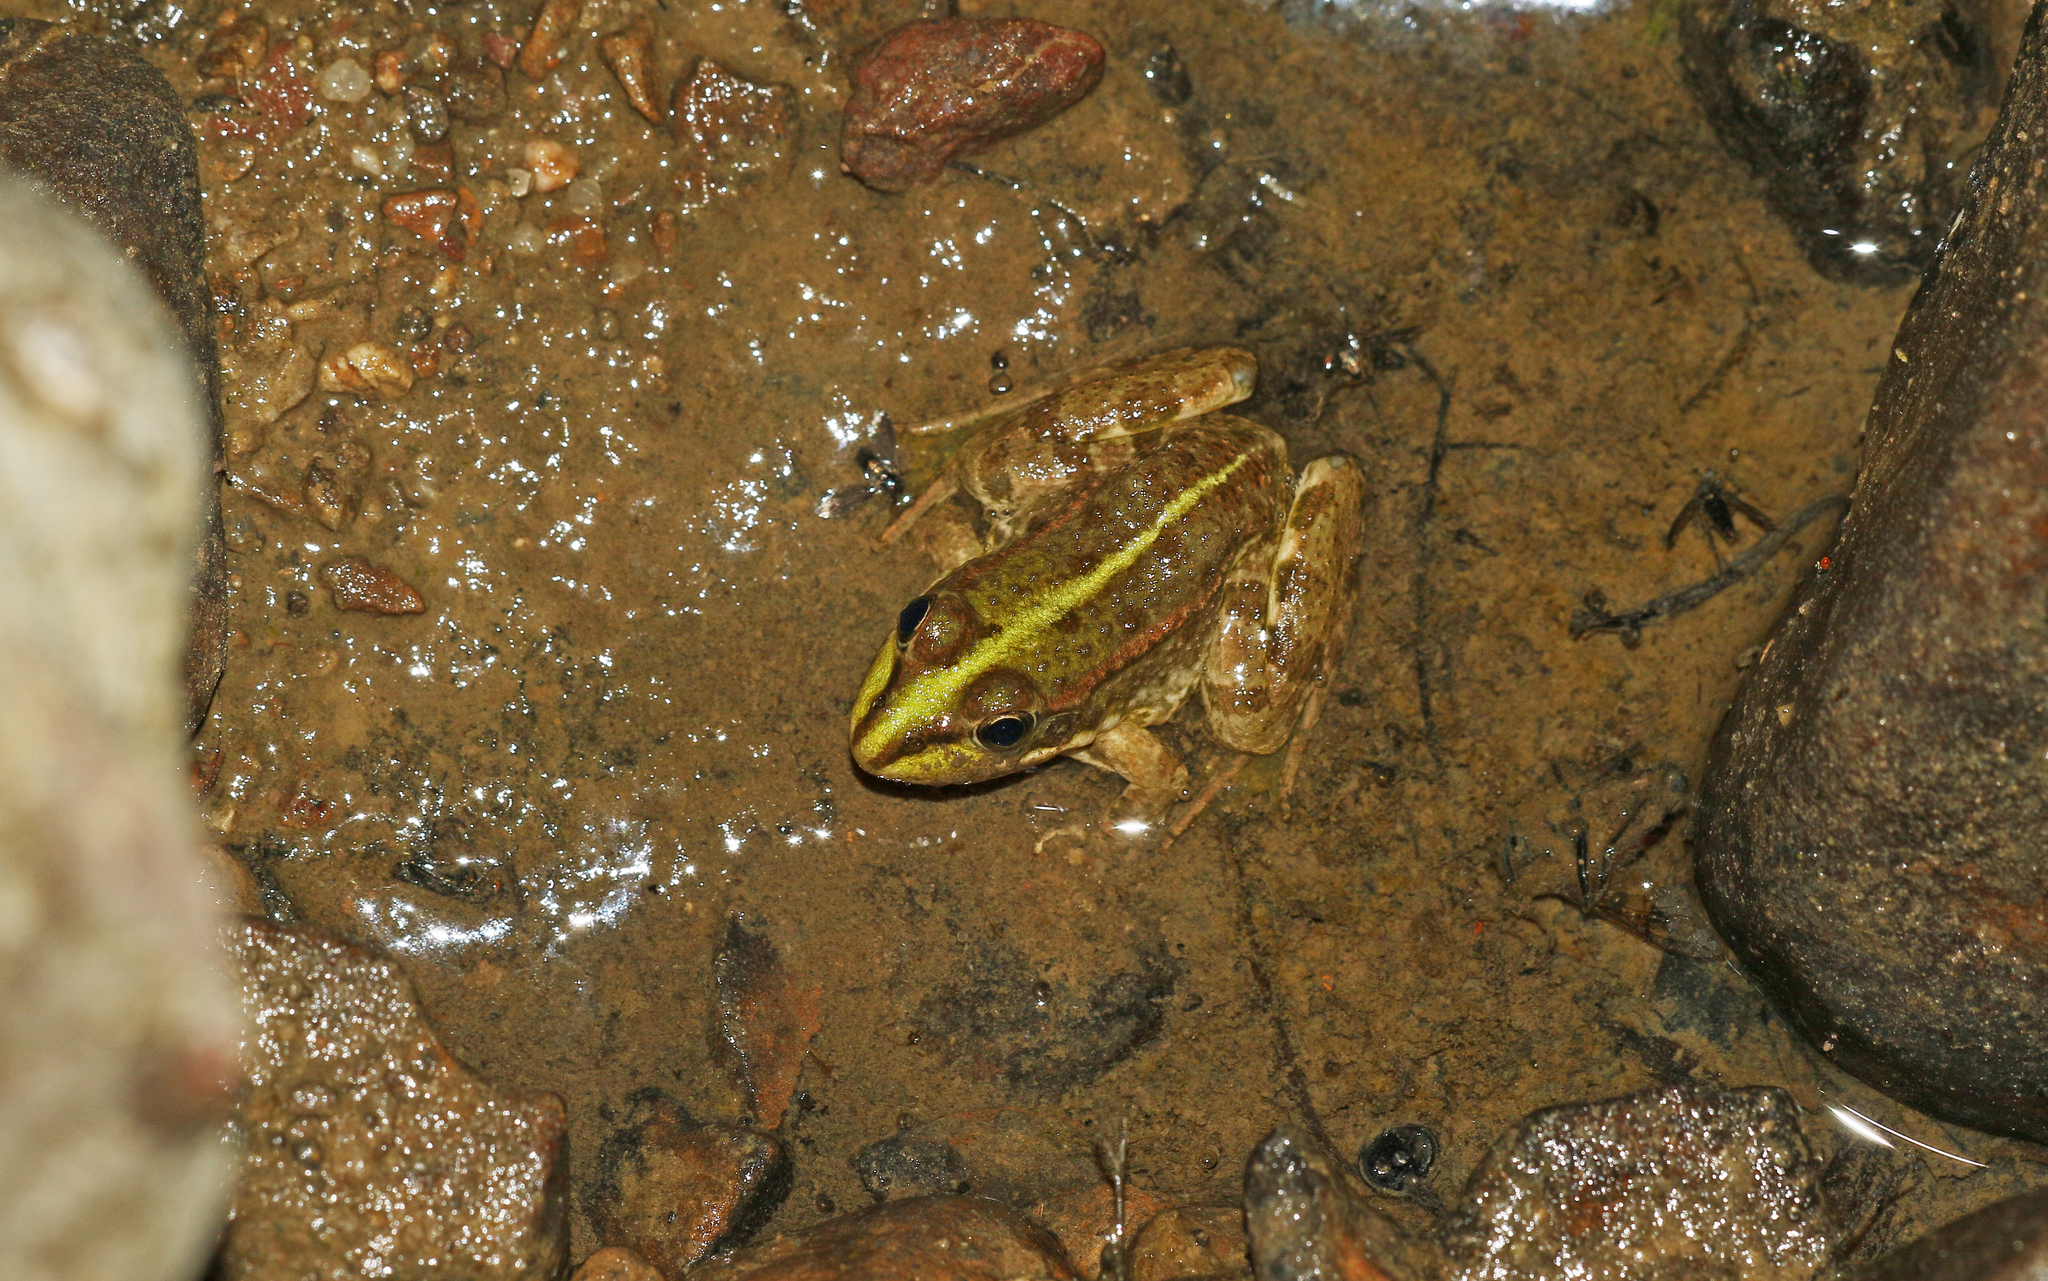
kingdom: Animalia
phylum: Chordata
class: Amphibia
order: Anura
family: Ranidae
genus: Pelophylax
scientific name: Pelophylax perezi
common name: Perez's frog
